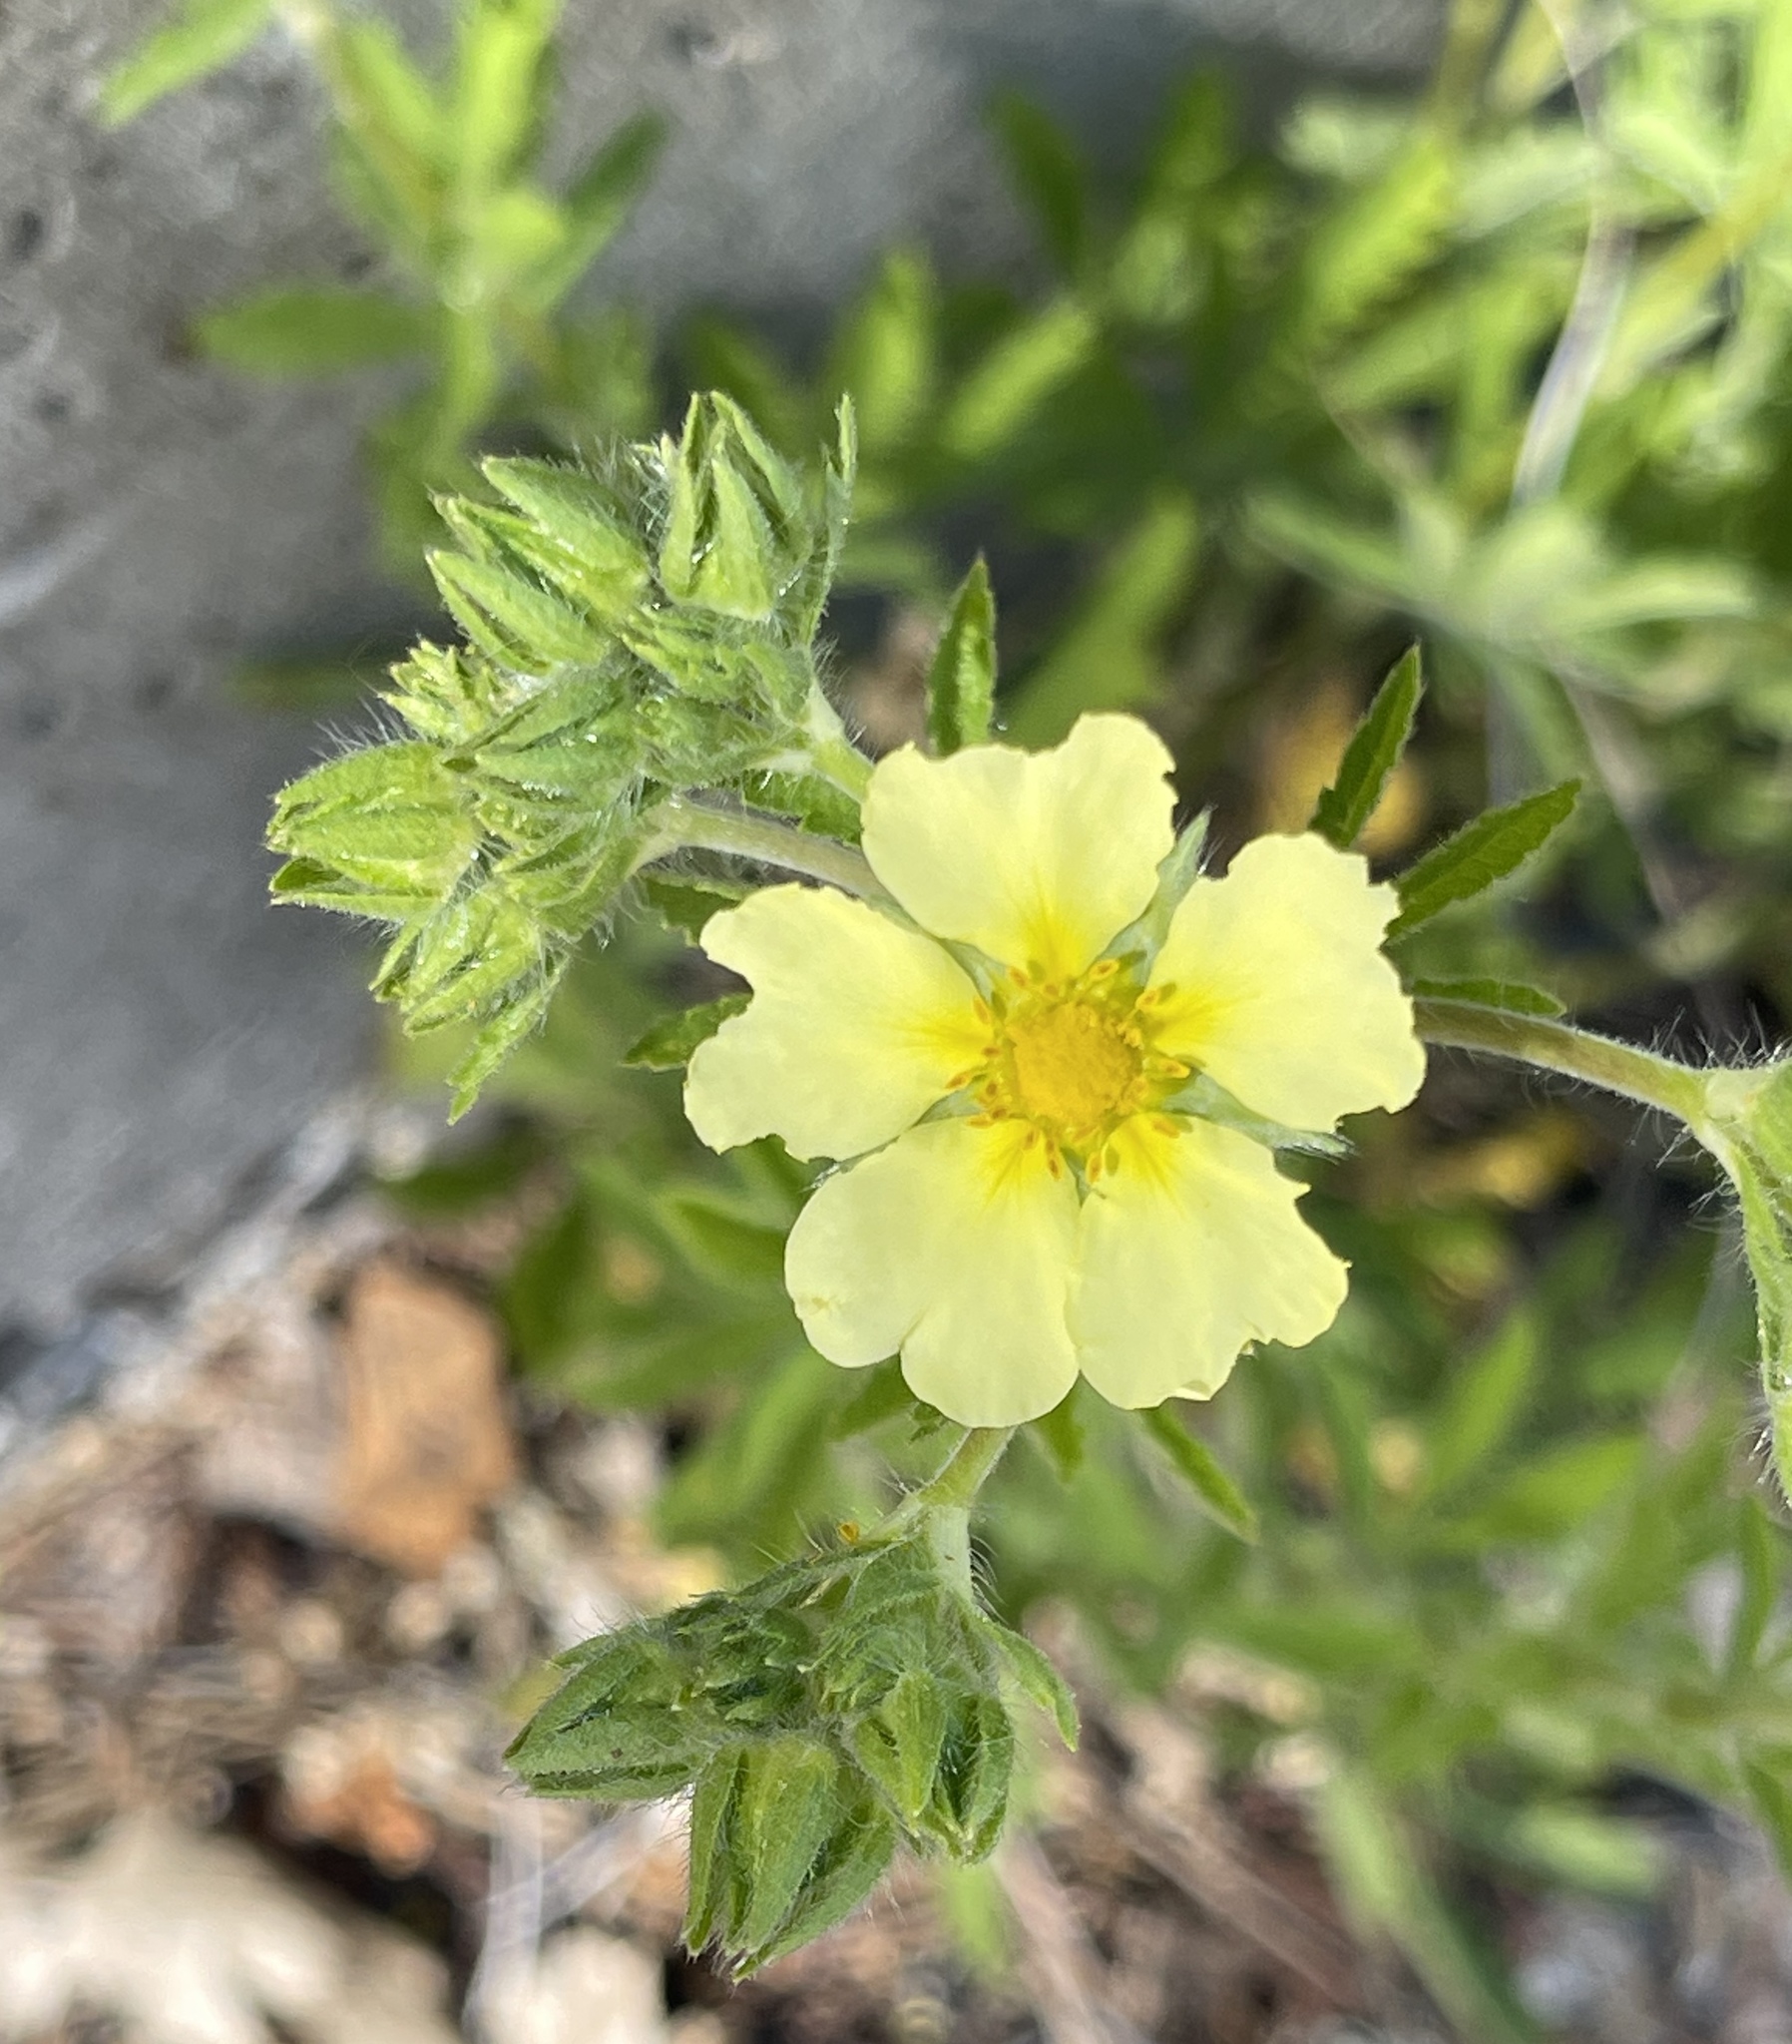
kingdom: Plantae
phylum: Tracheophyta
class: Magnoliopsida
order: Rosales
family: Rosaceae
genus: Potentilla
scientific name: Potentilla recta
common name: Sulphur cinquefoil
